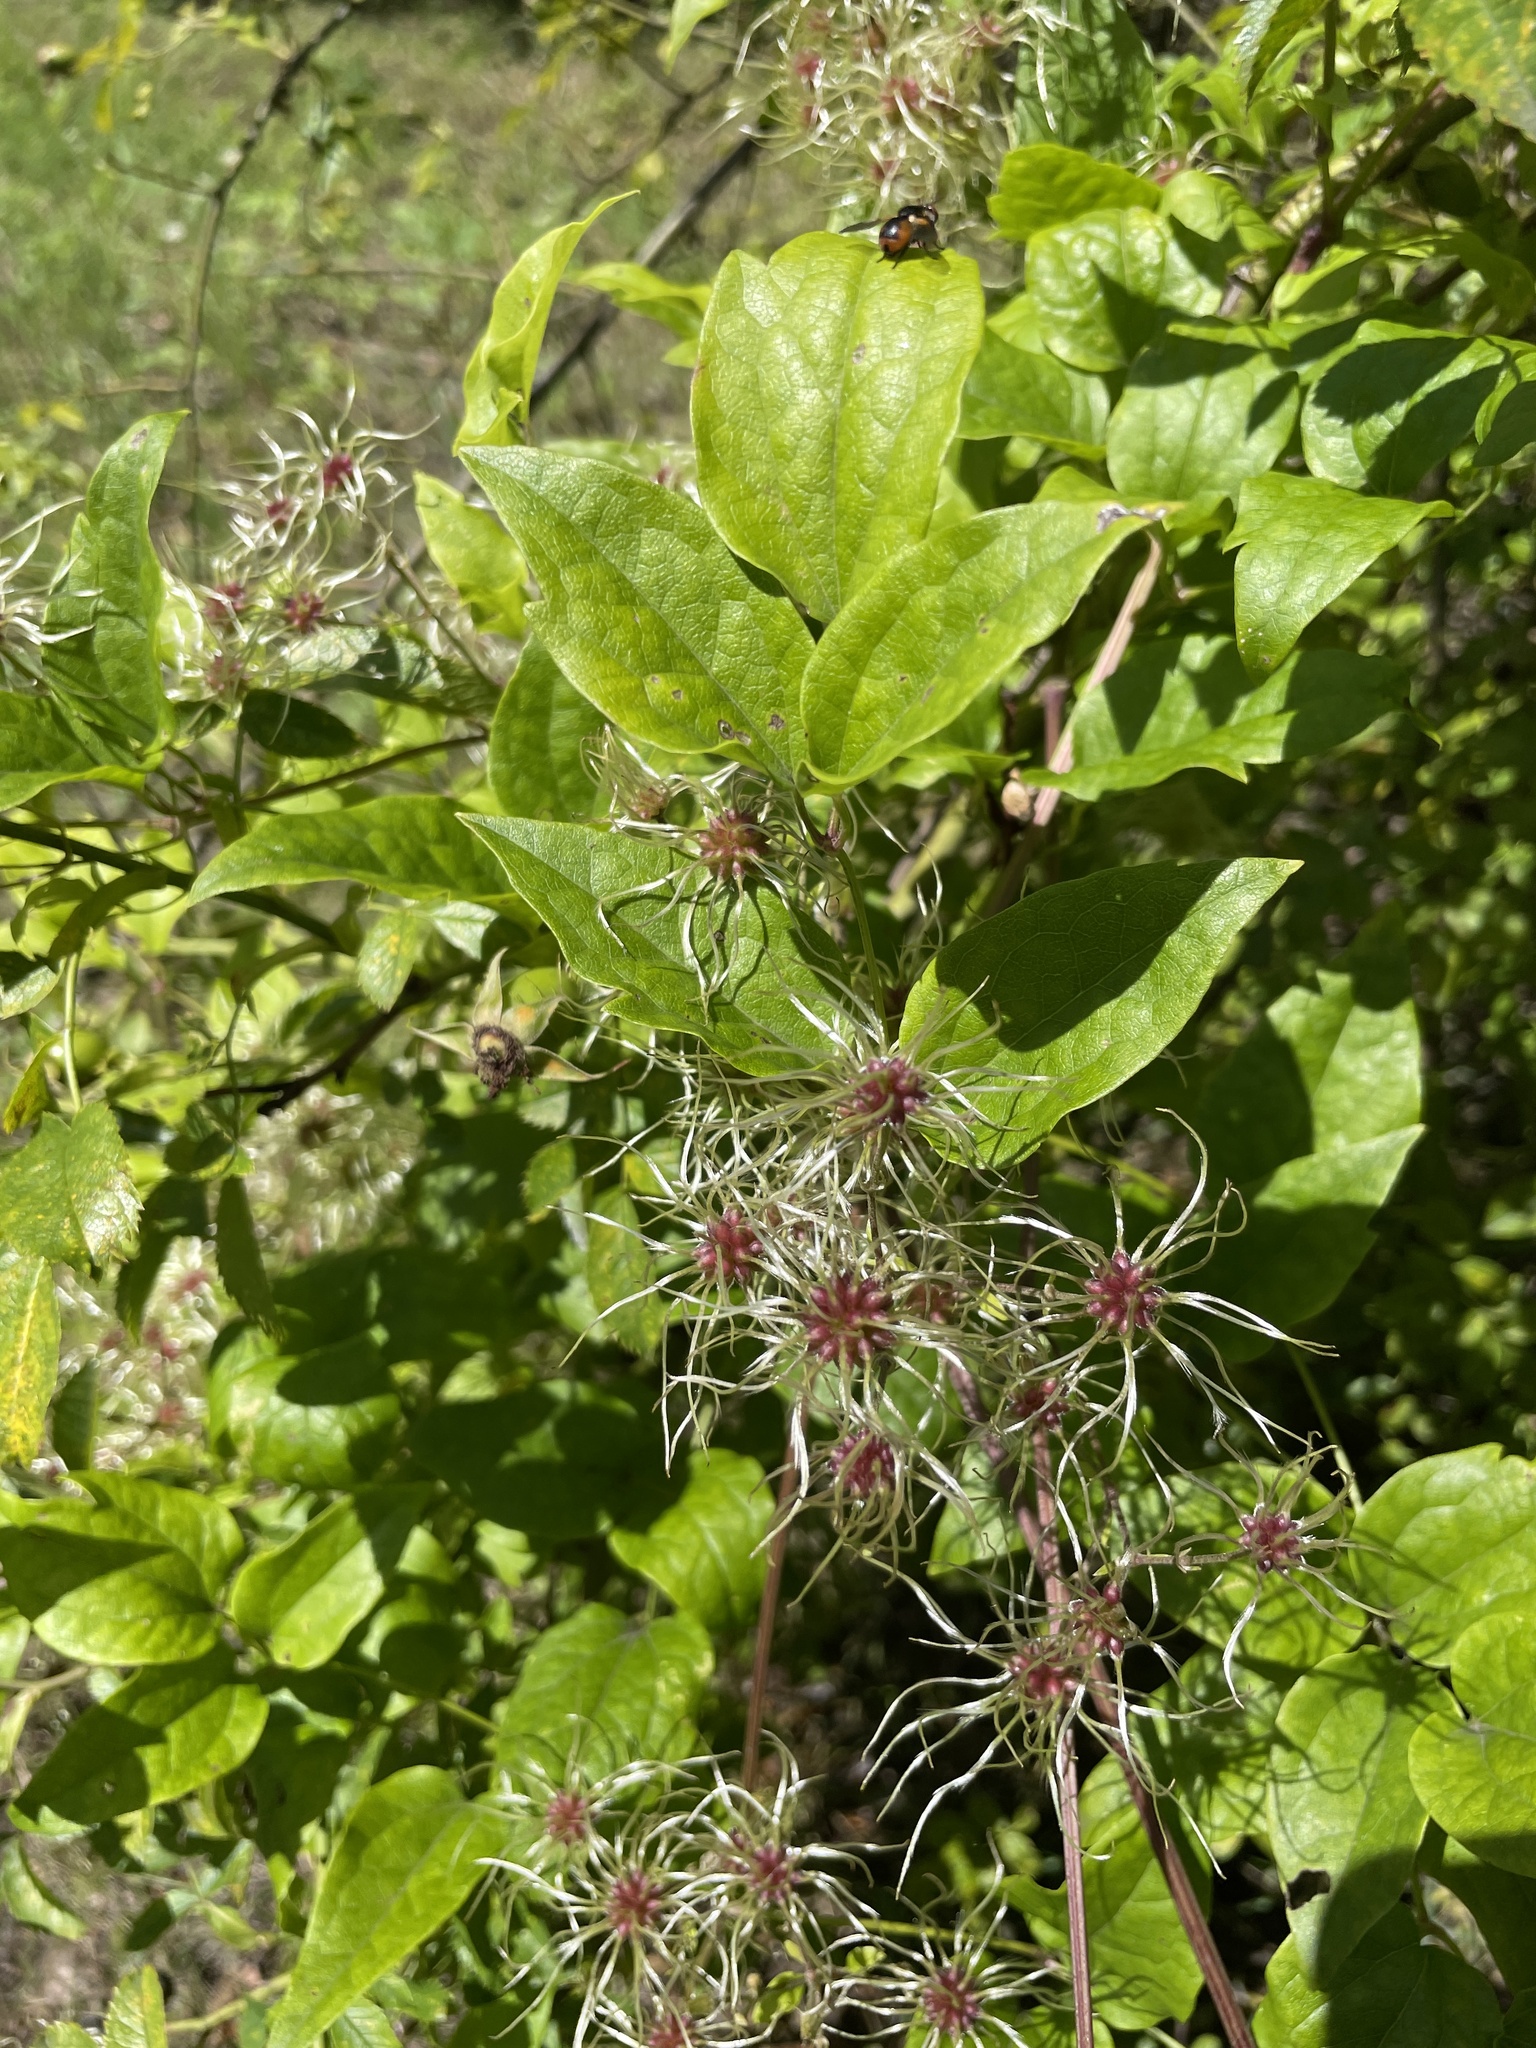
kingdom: Plantae
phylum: Tracheophyta
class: Magnoliopsida
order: Ranunculales
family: Ranunculaceae
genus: Clematis
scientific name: Clematis vitalba
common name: Evergreen clematis
